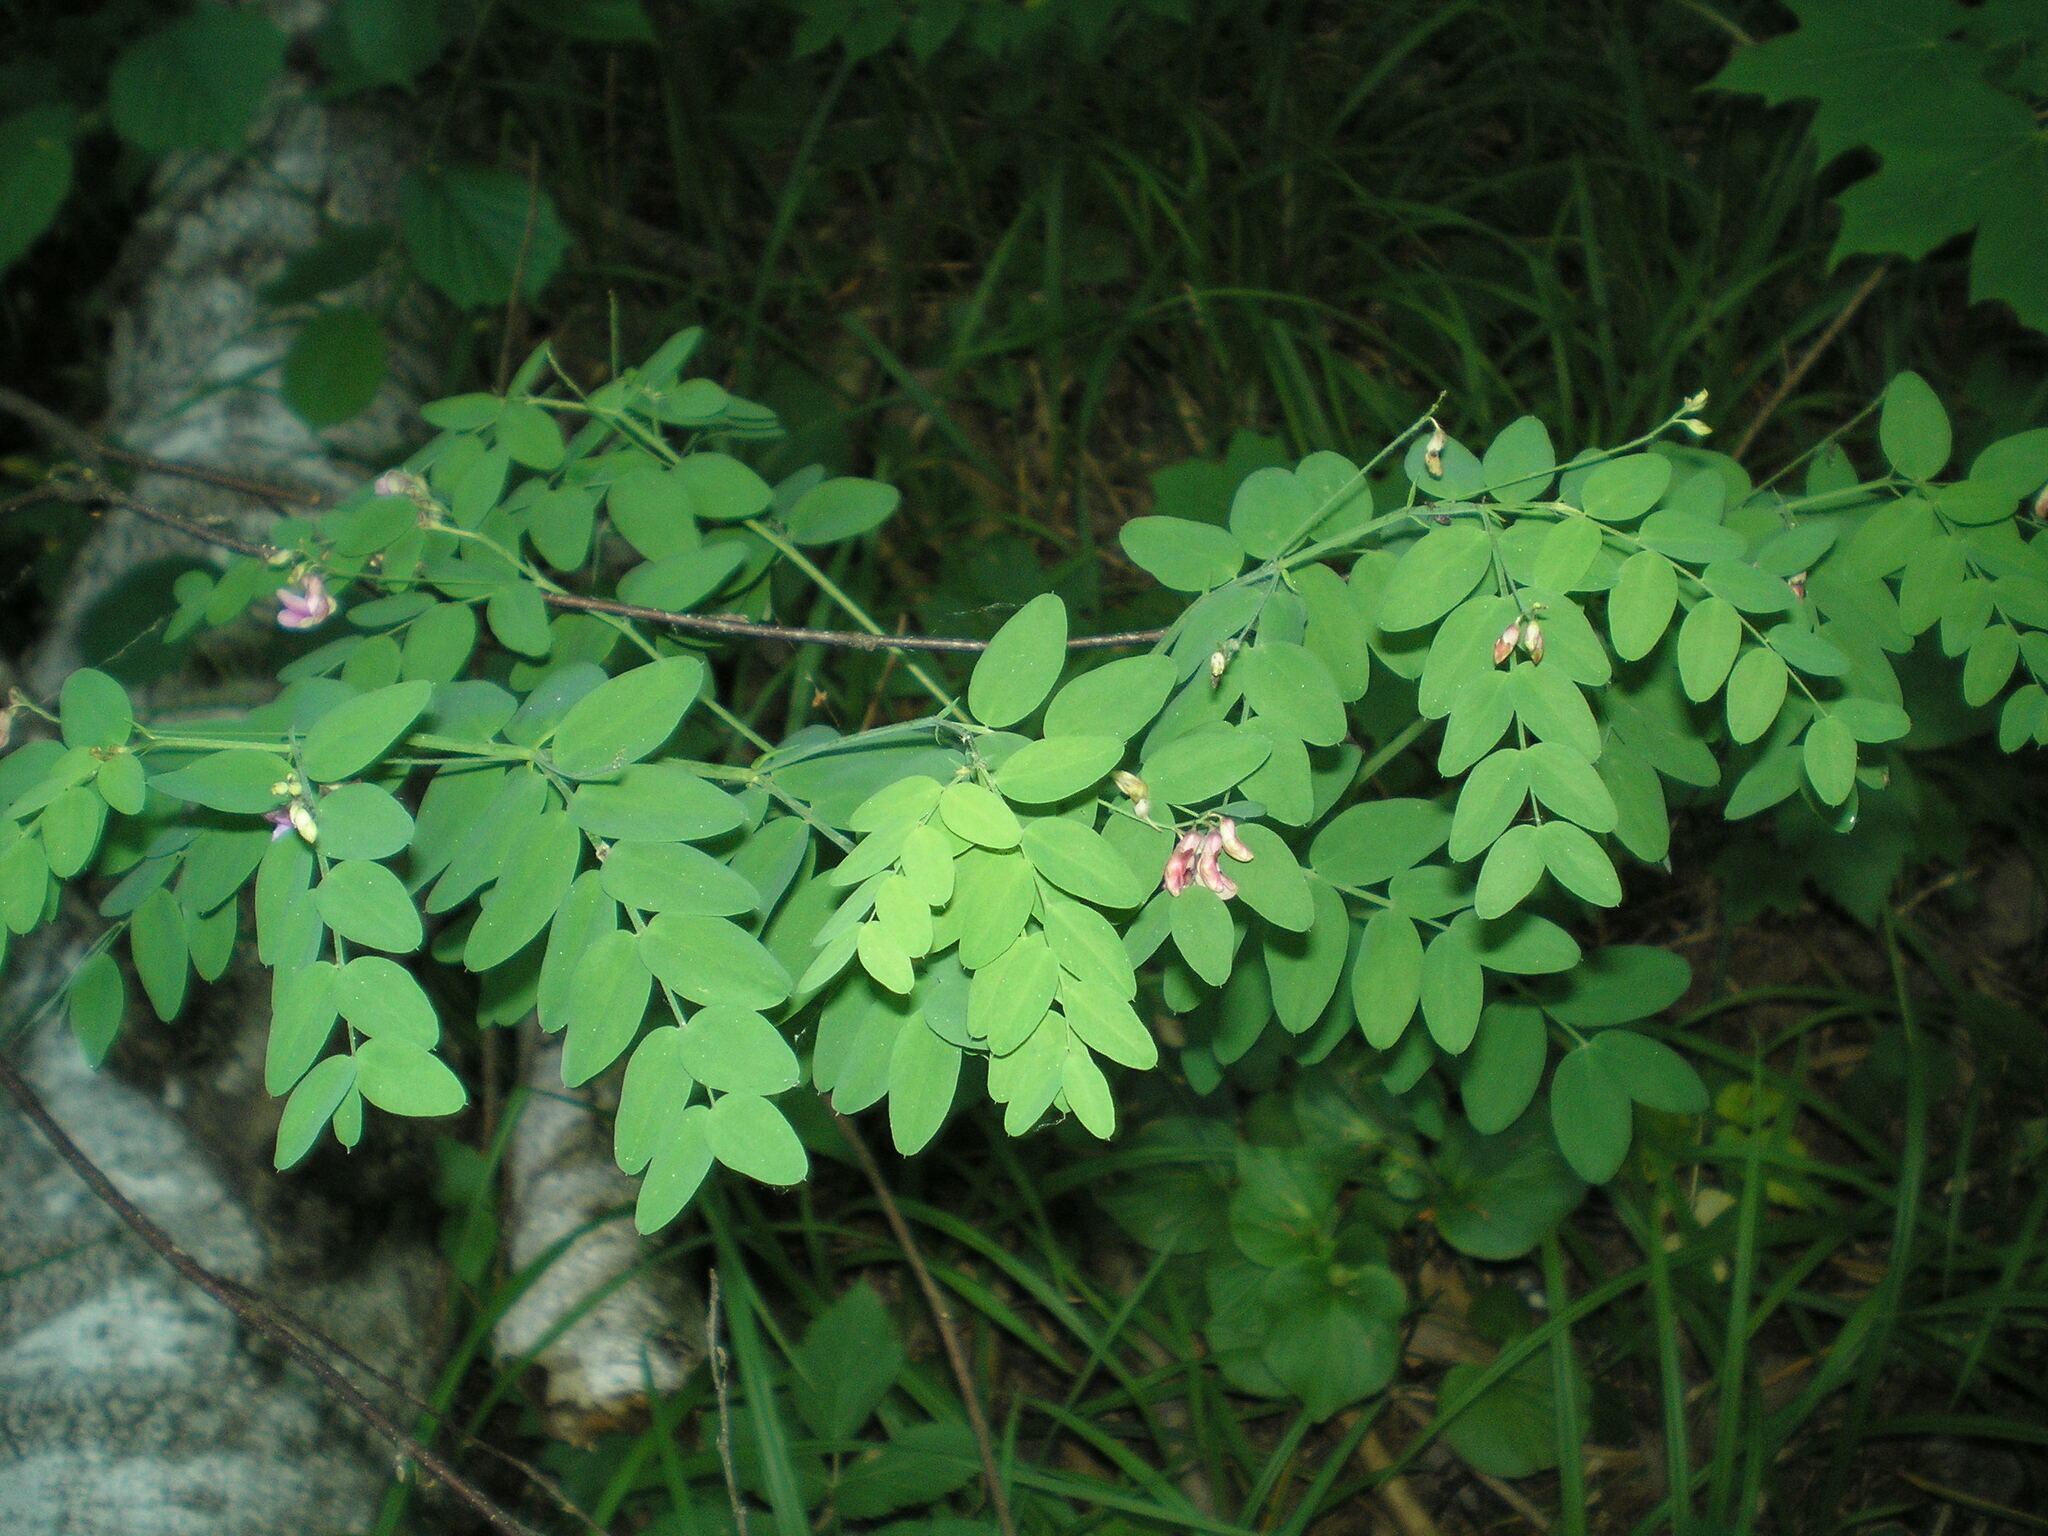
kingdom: Plantae
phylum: Tracheophyta
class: Magnoliopsida
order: Fabales
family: Fabaceae
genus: Lathyrus
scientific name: Lathyrus niger
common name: Black pea
